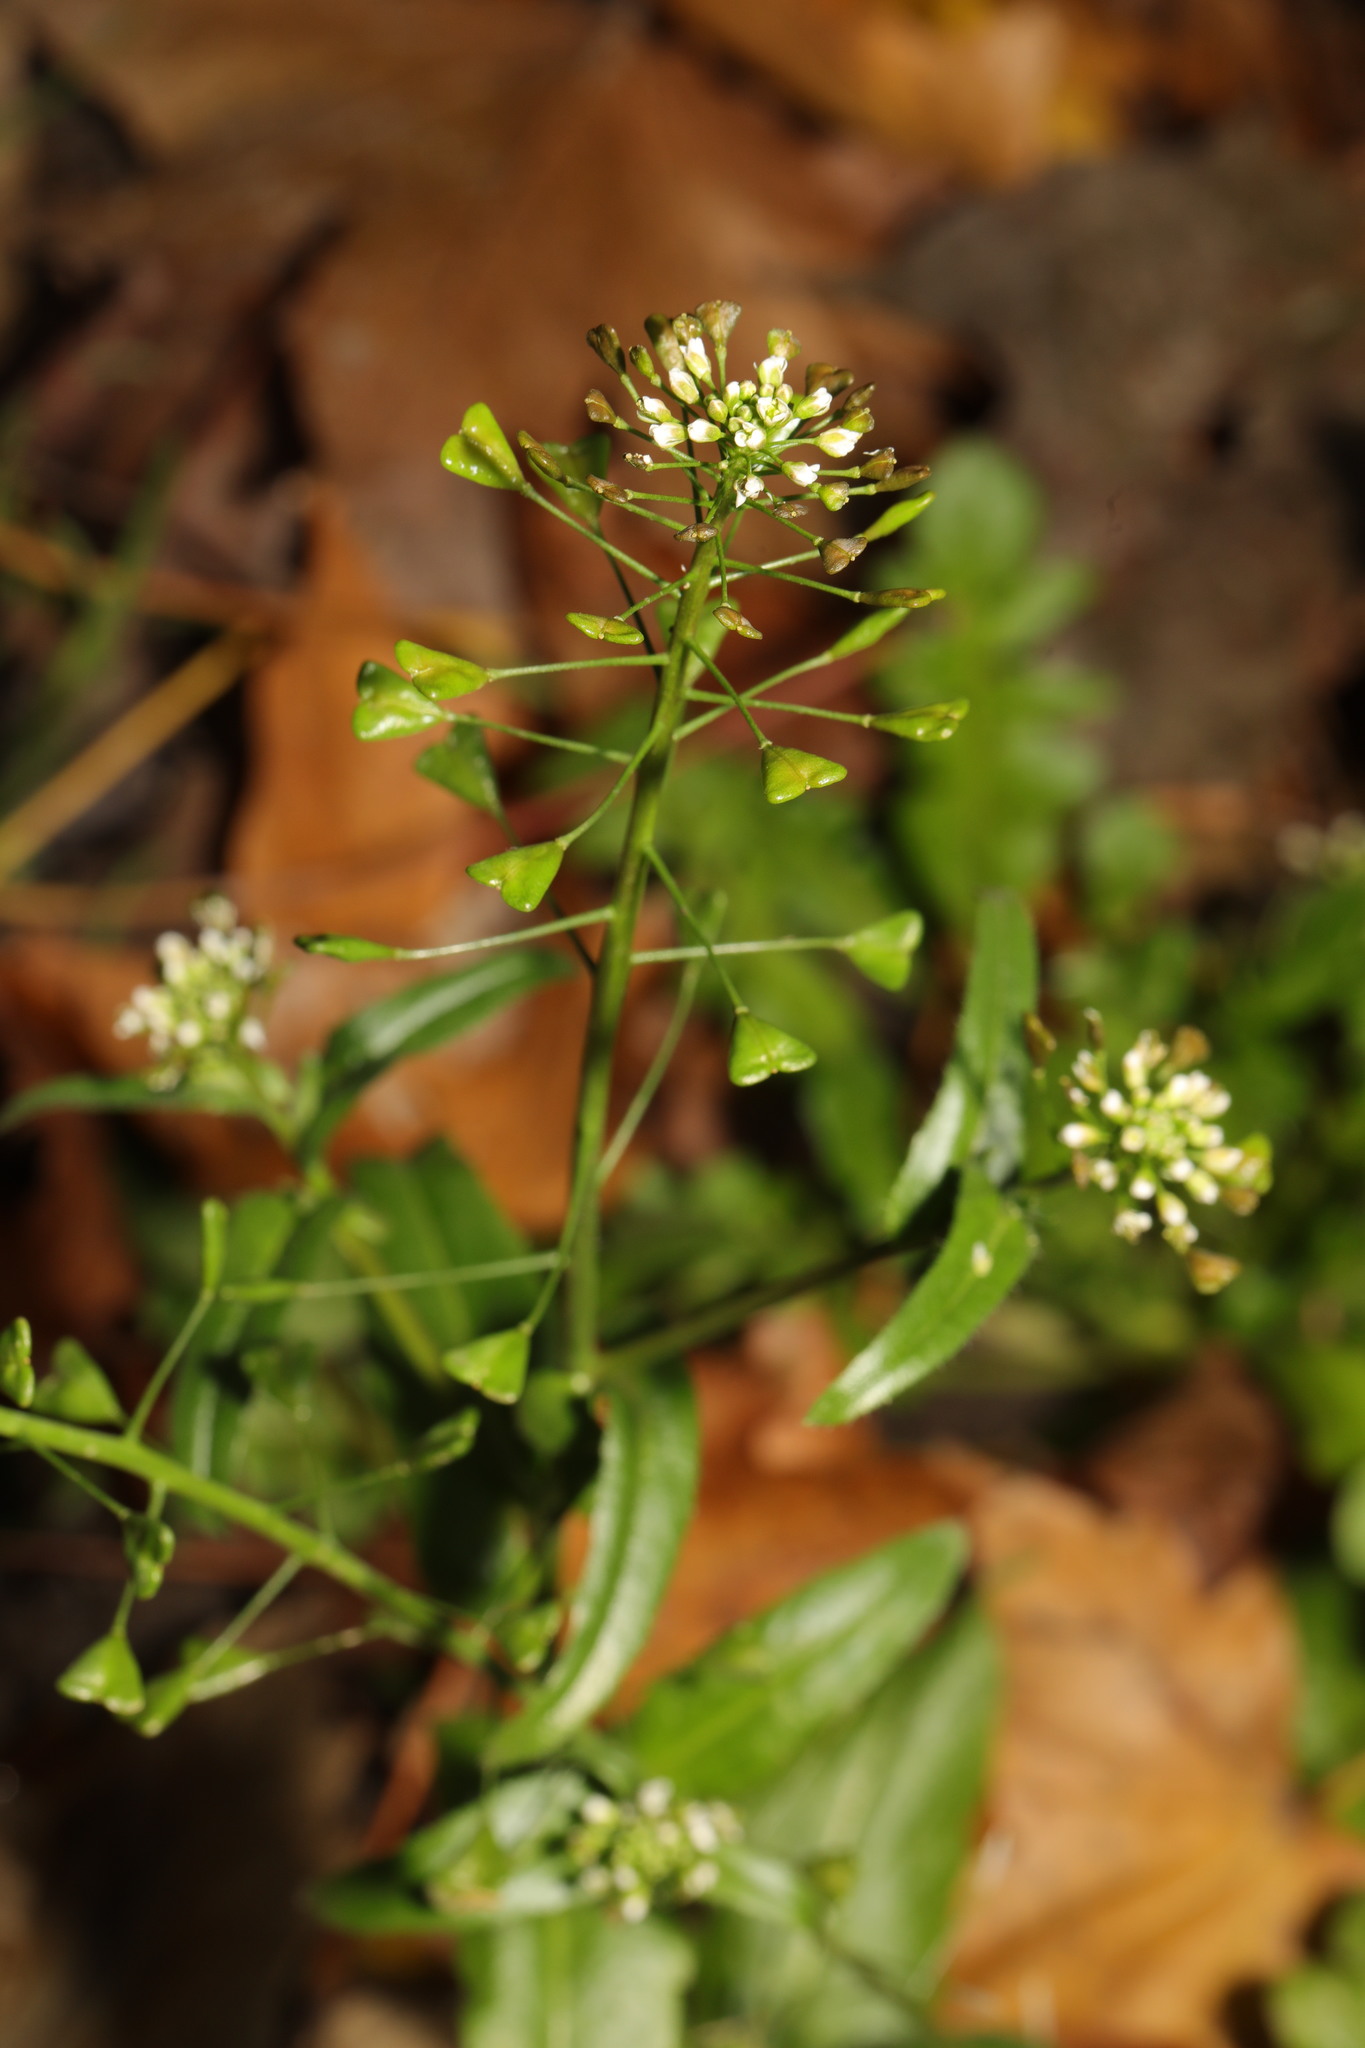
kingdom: Plantae
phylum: Tracheophyta
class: Magnoliopsida
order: Brassicales
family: Brassicaceae
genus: Capsella
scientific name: Capsella bursa-pastoris
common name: Shepherd's purse
